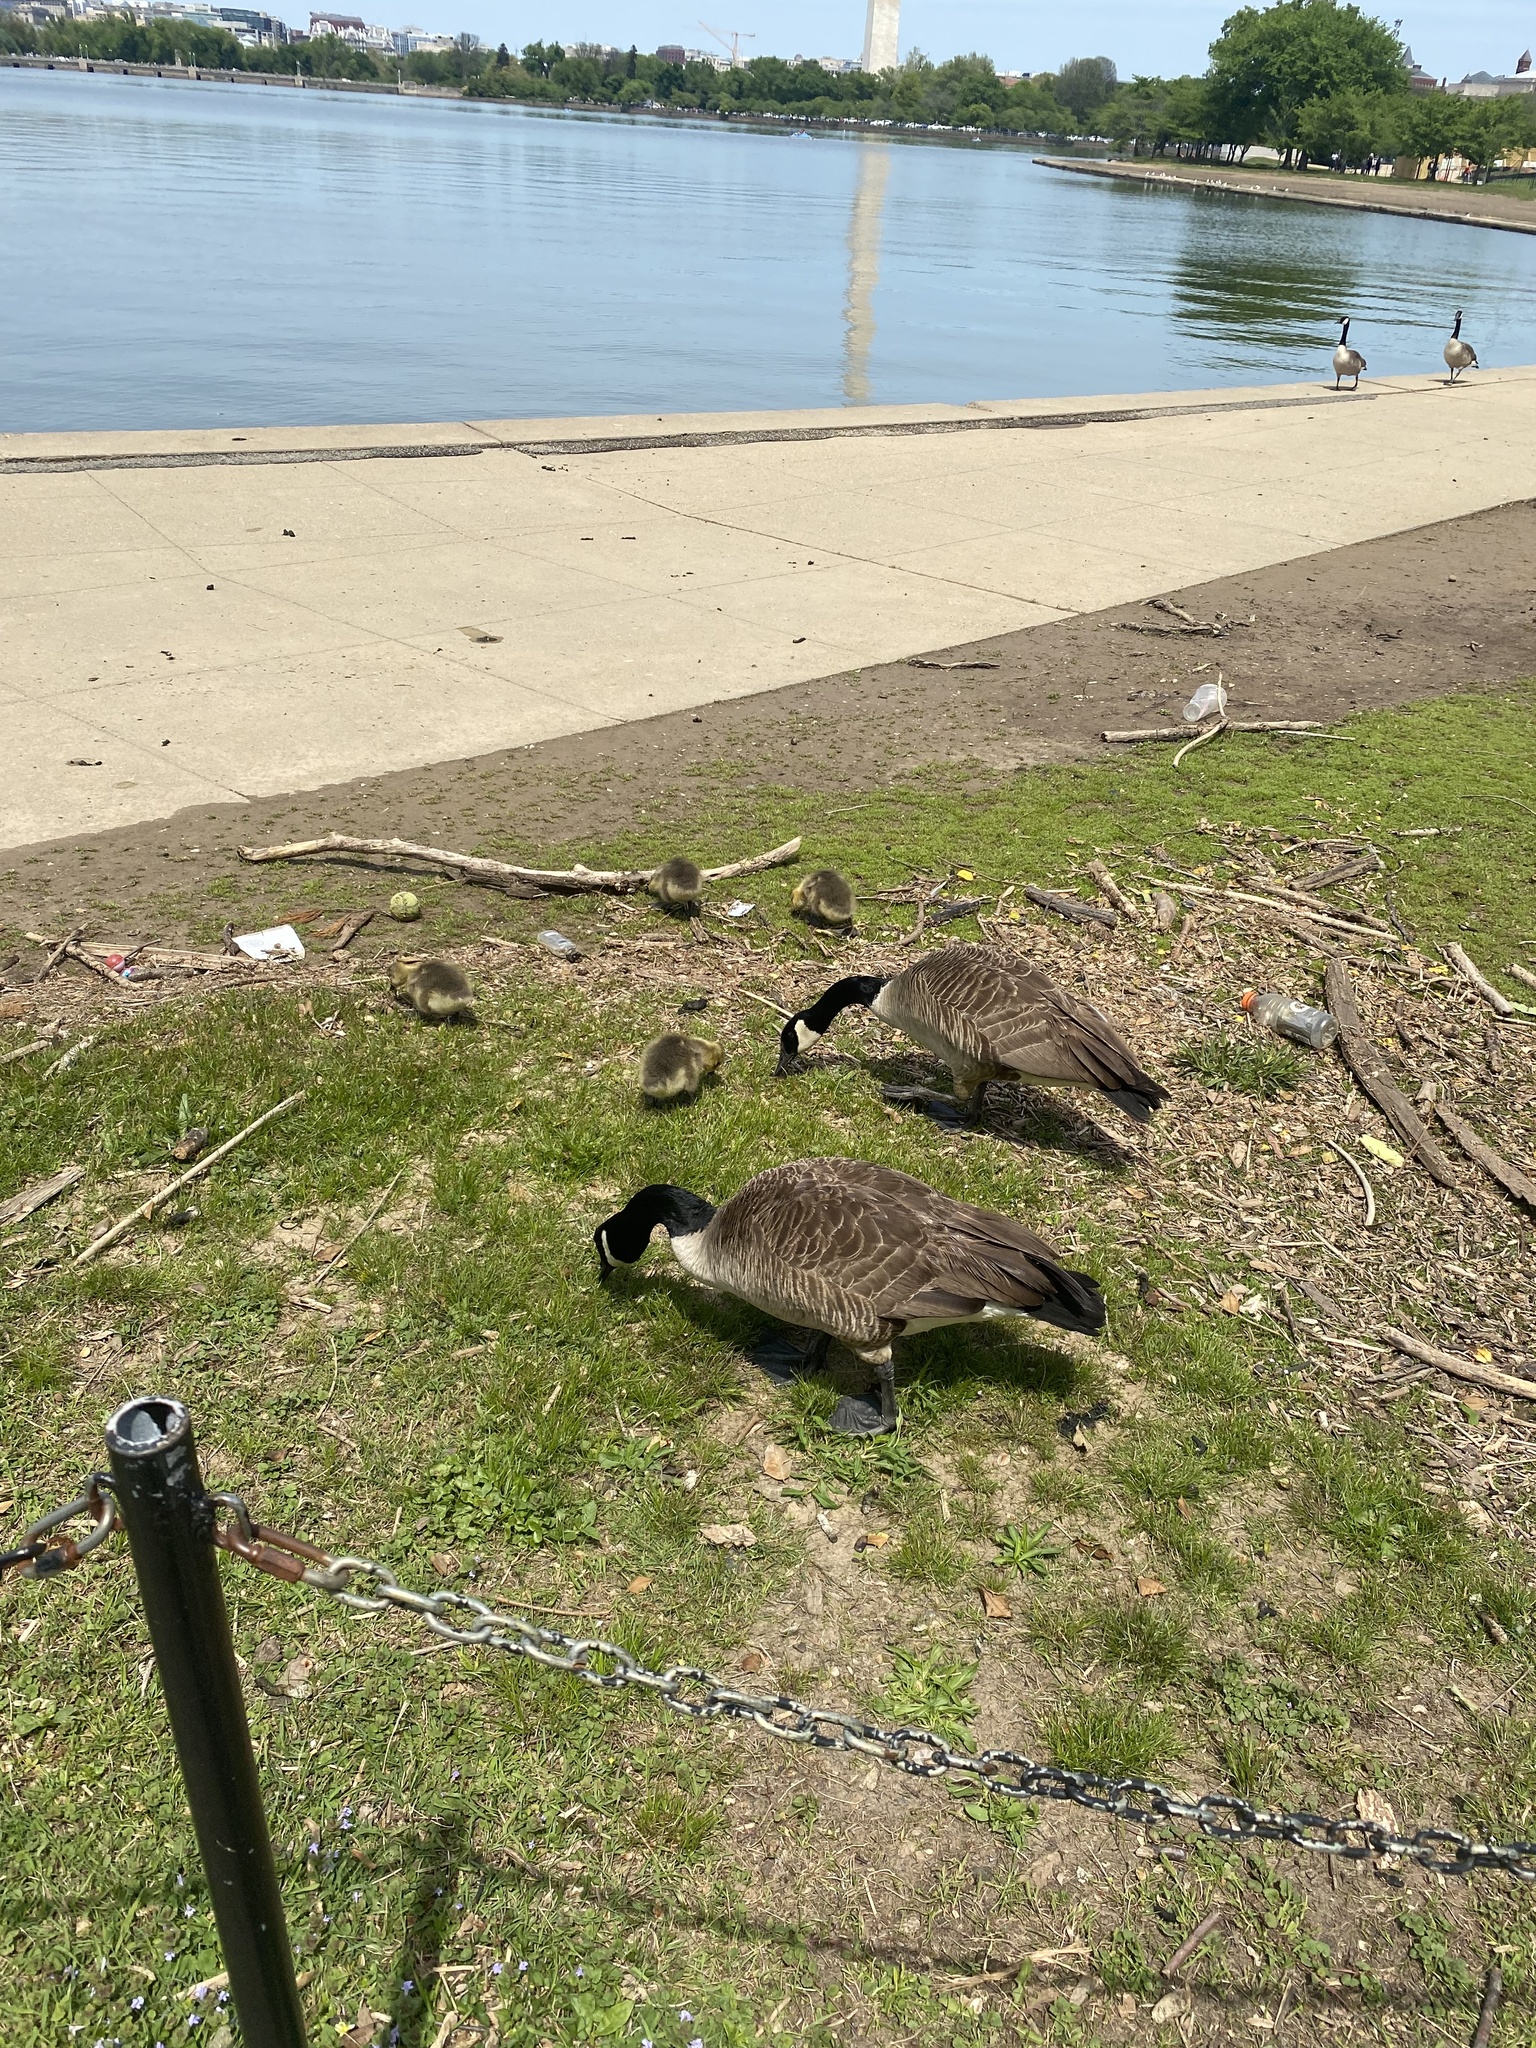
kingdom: Animalia
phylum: Chordata
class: Aves
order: Anseriformes
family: Anatidae
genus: Branta
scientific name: Branta canadensis
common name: Canada goose
